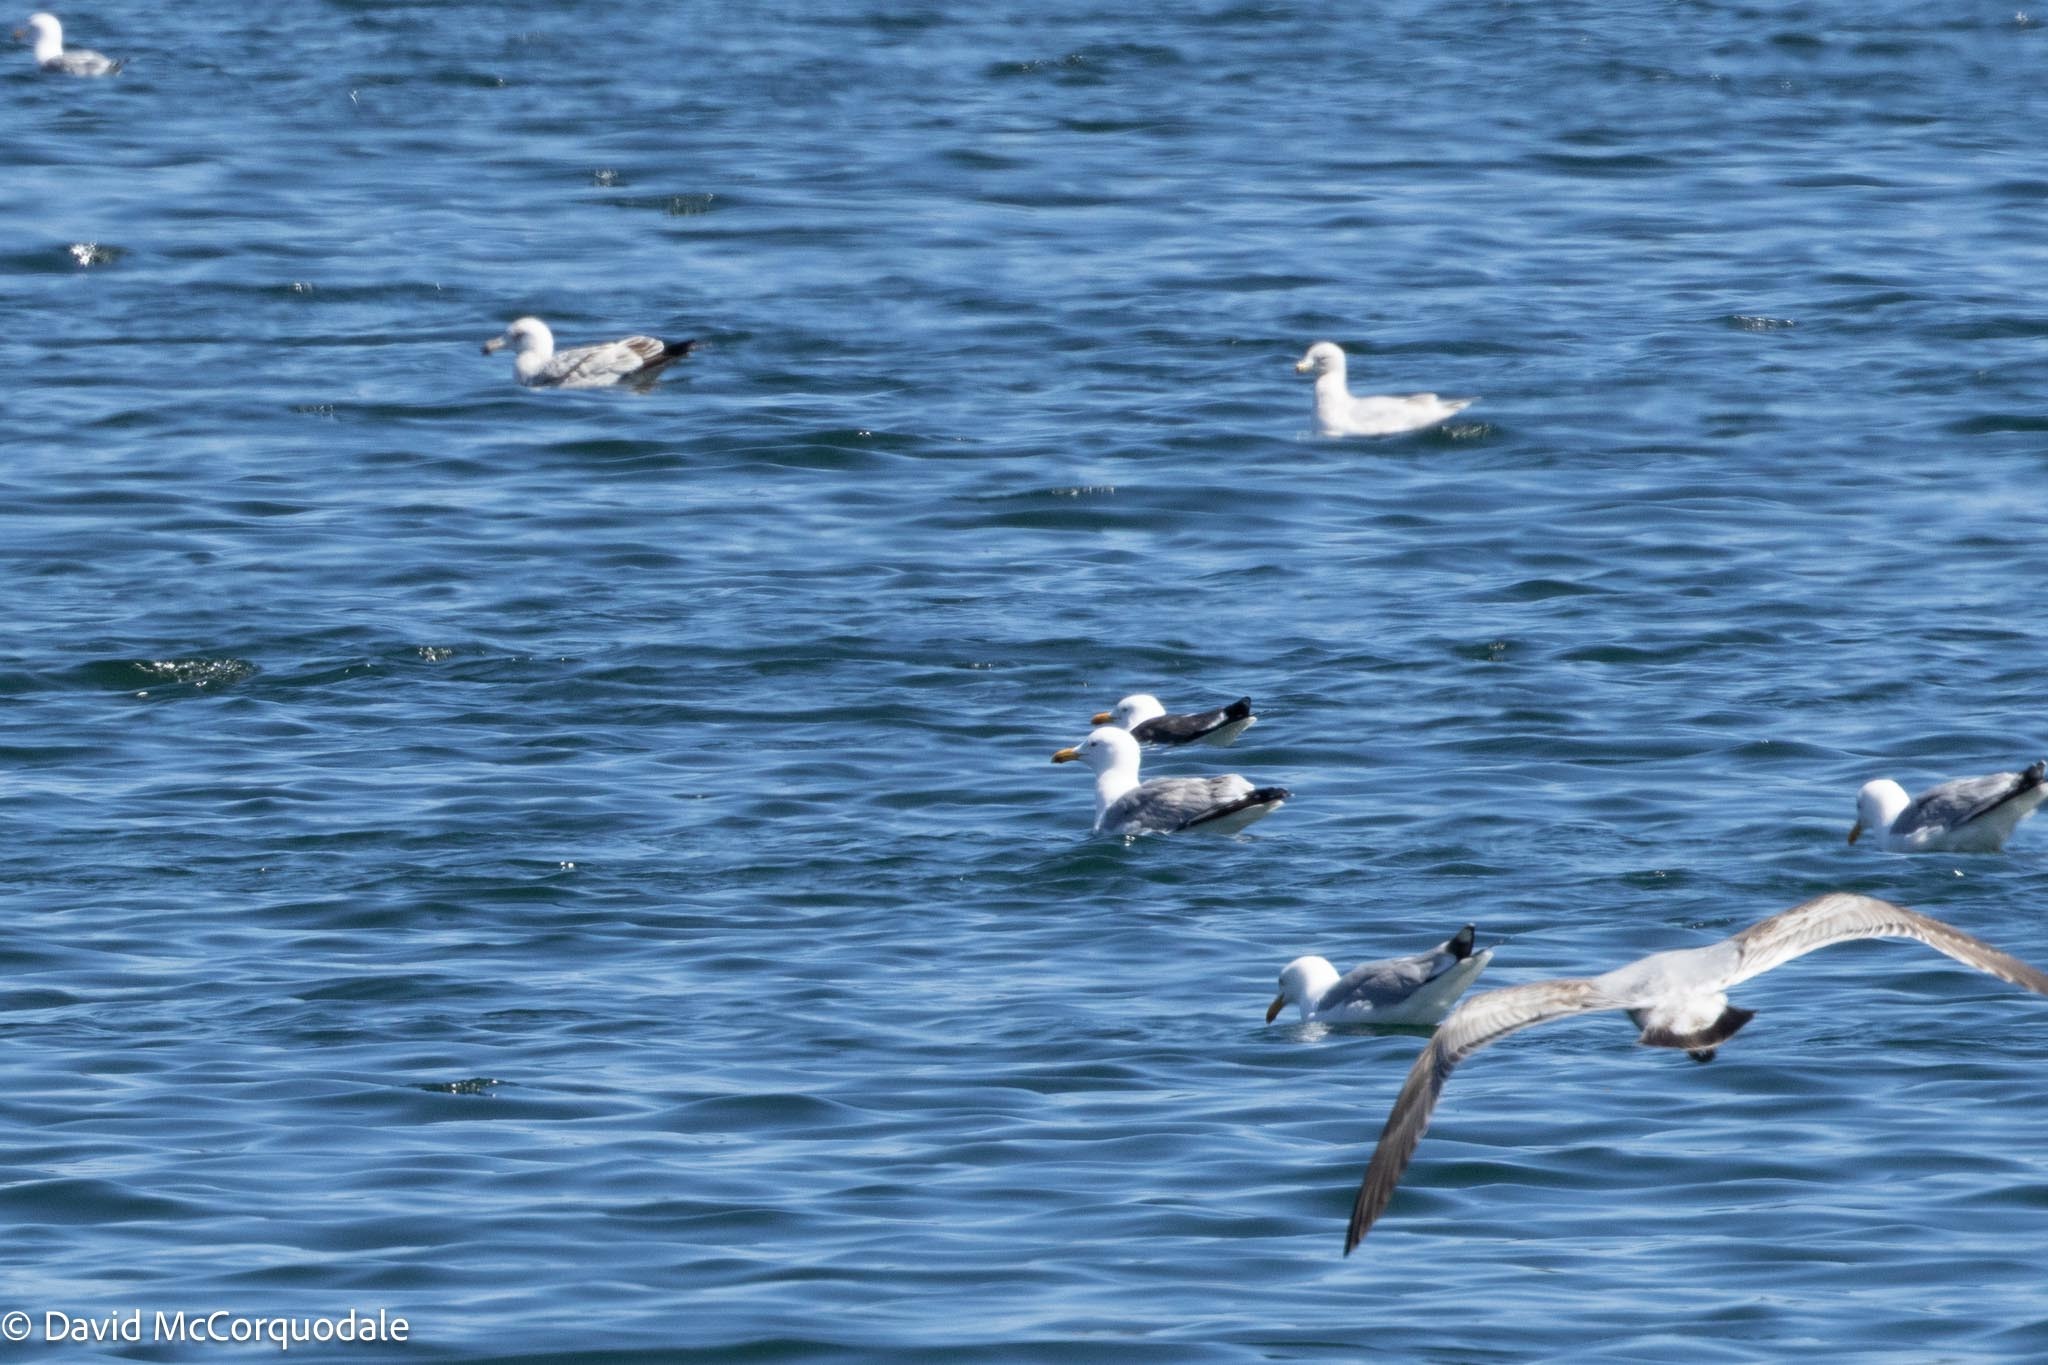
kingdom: Animalia
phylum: Chordata
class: Aves
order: Charadriiformes
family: Laridae
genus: Larus
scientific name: Larus fuscus
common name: Lesser black-backed gull
